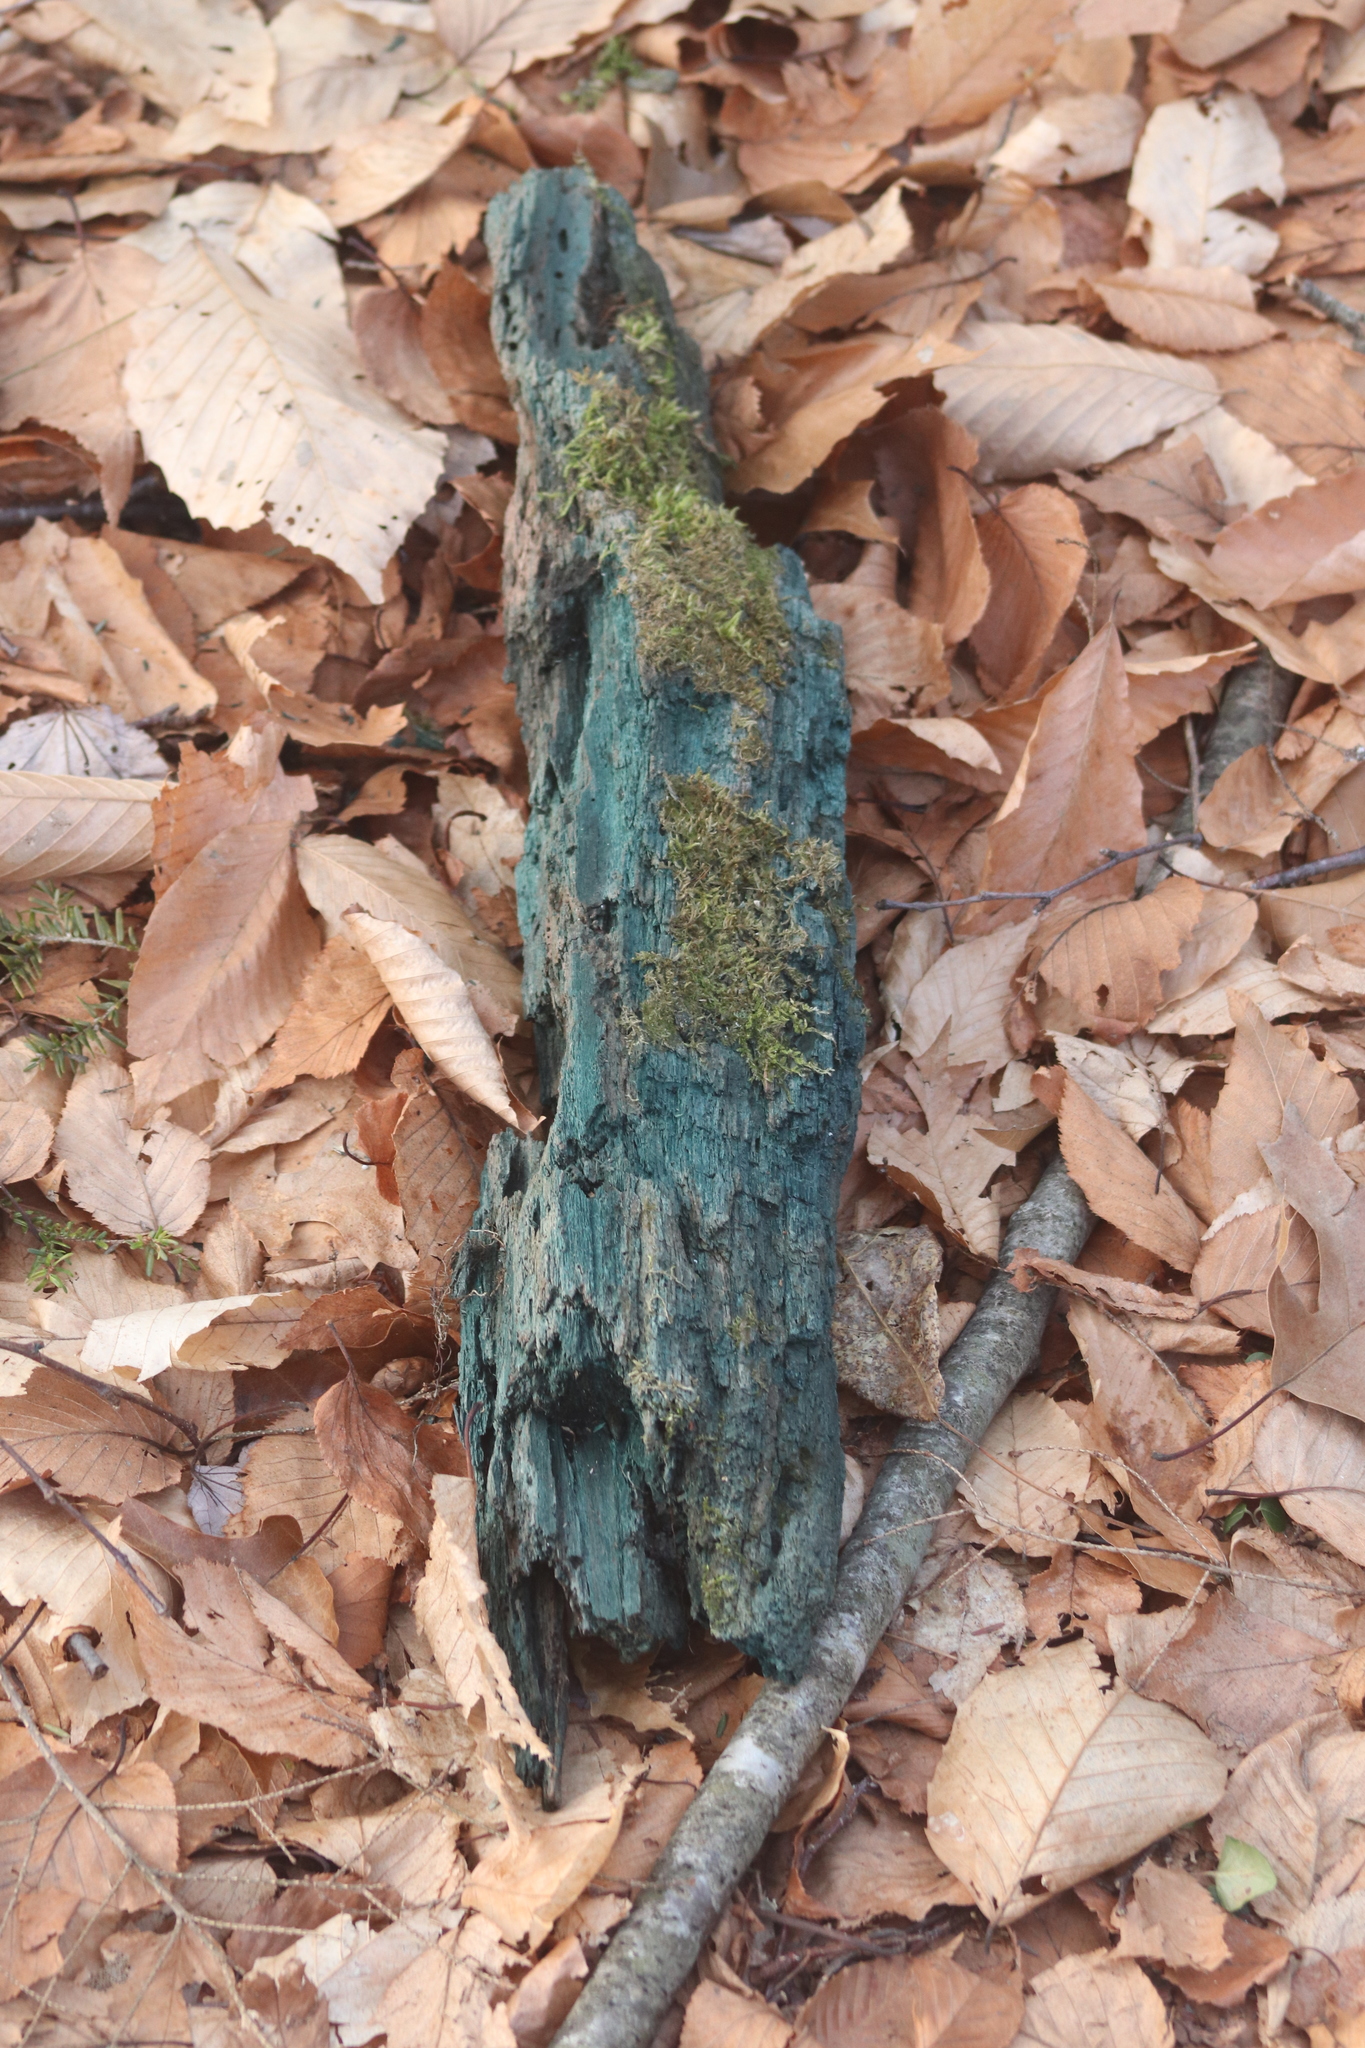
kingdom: Fungi
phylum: Ascomycota
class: Leotiomycetes
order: Helotiales
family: Chlorociboriaceae
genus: Chlorociboria
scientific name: Chlorociboria
